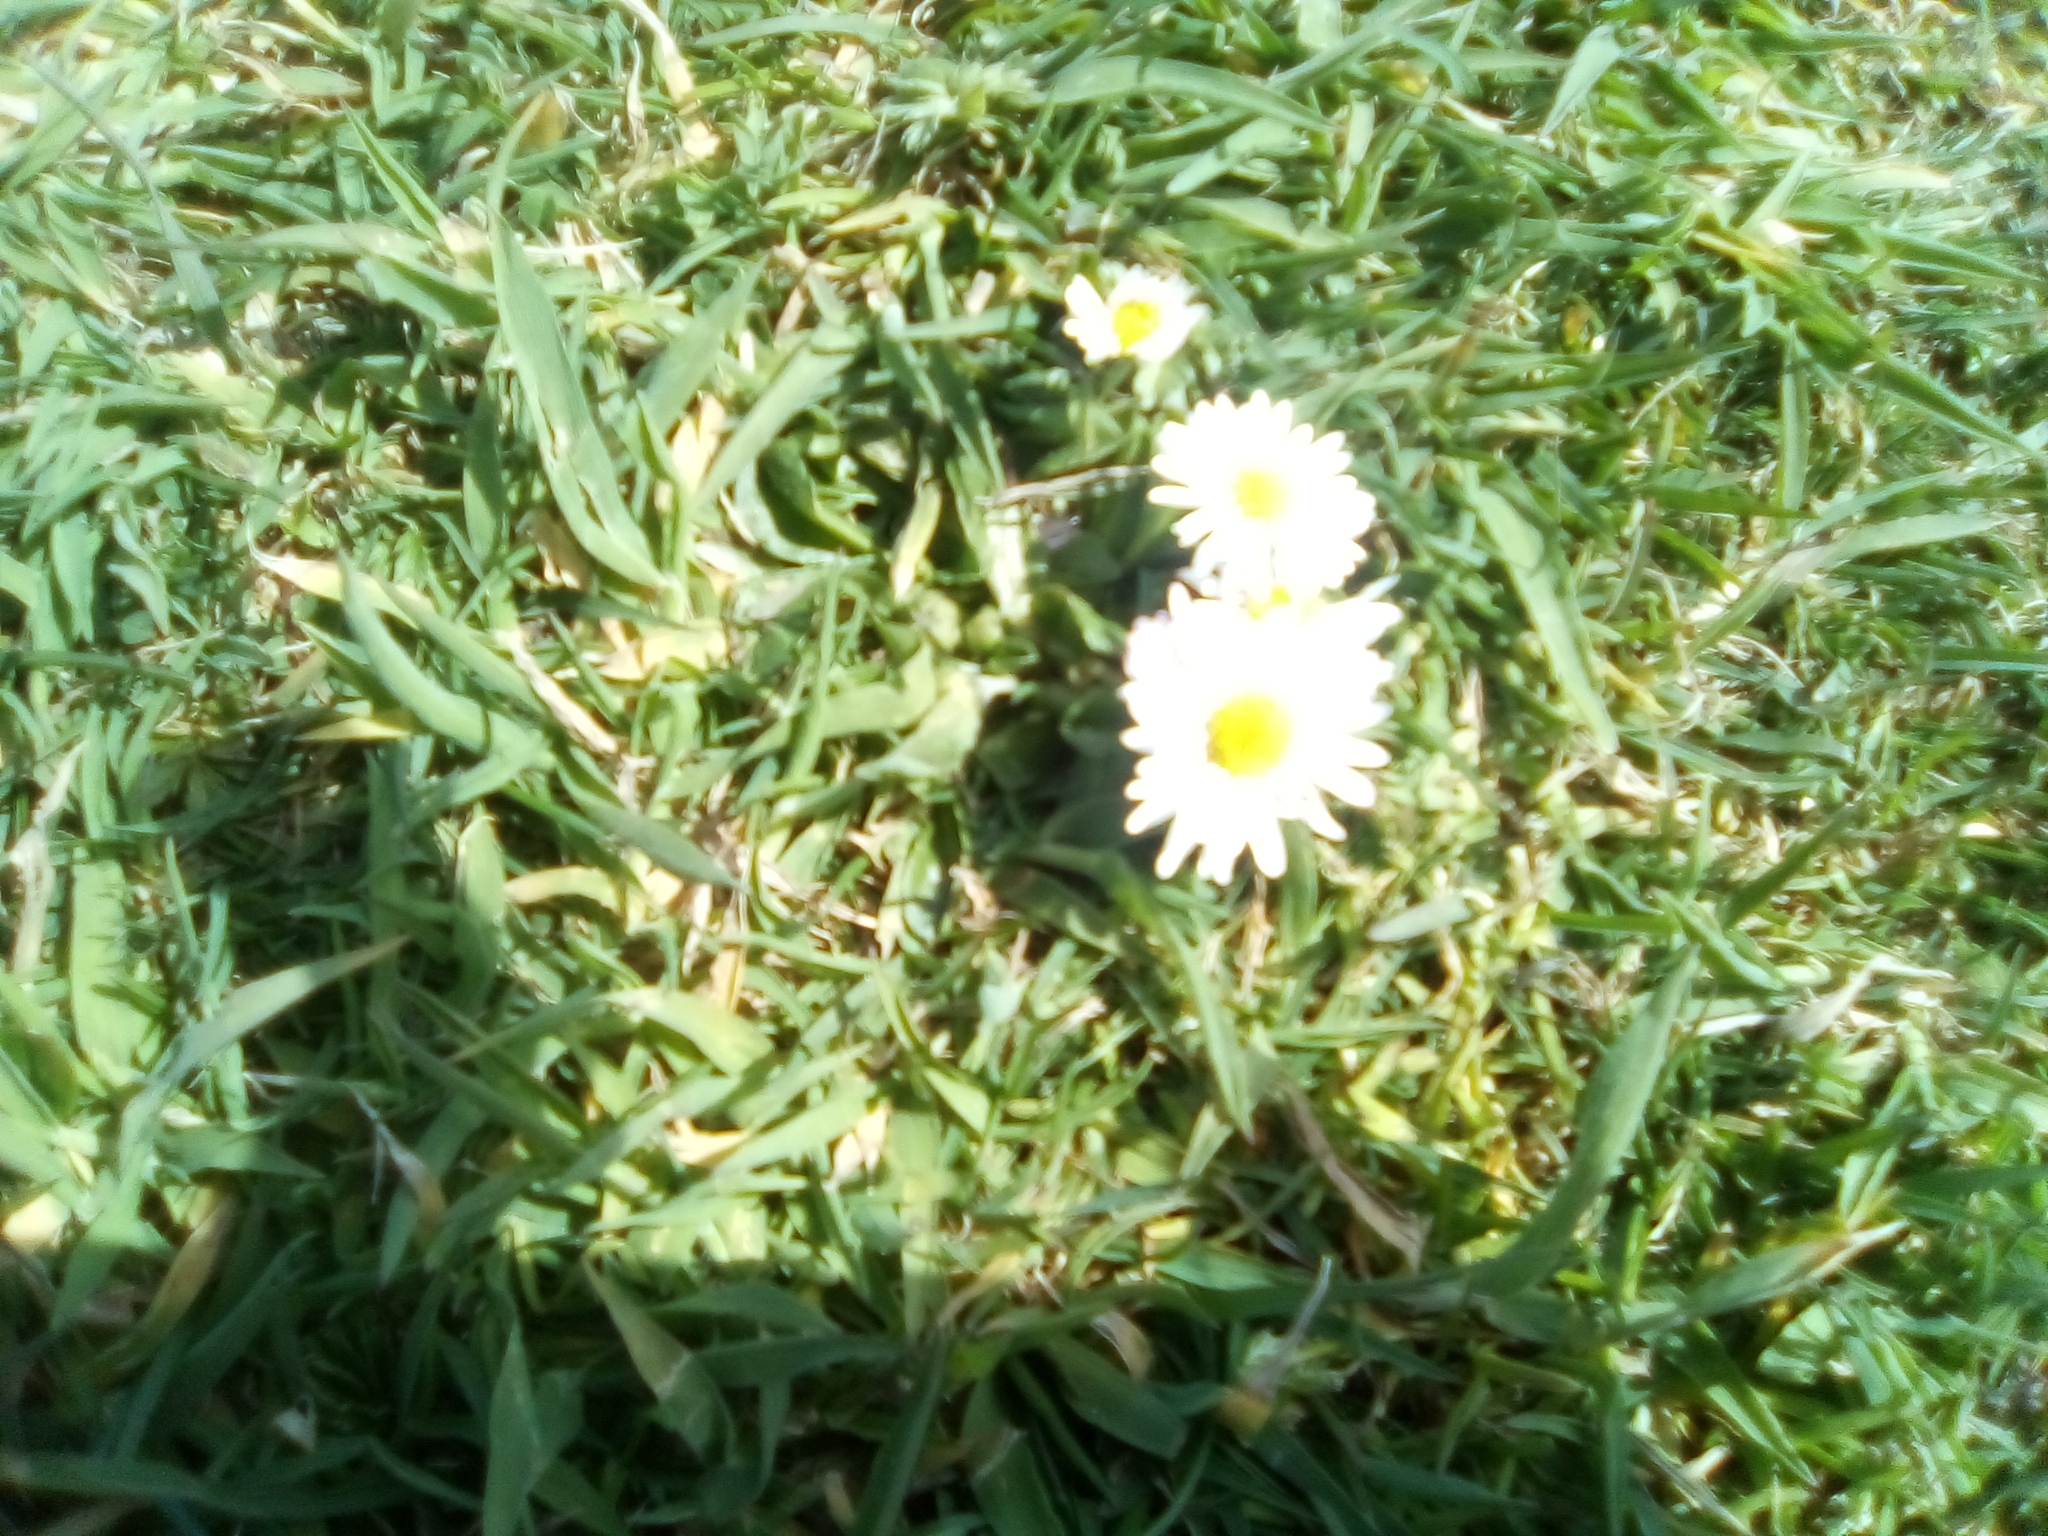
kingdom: Plantae
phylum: Tracheophyta
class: Magnoliopsida
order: Asterales
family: Asteraceae
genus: Bellis
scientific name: Bellis perennis
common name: Lawndaisy
